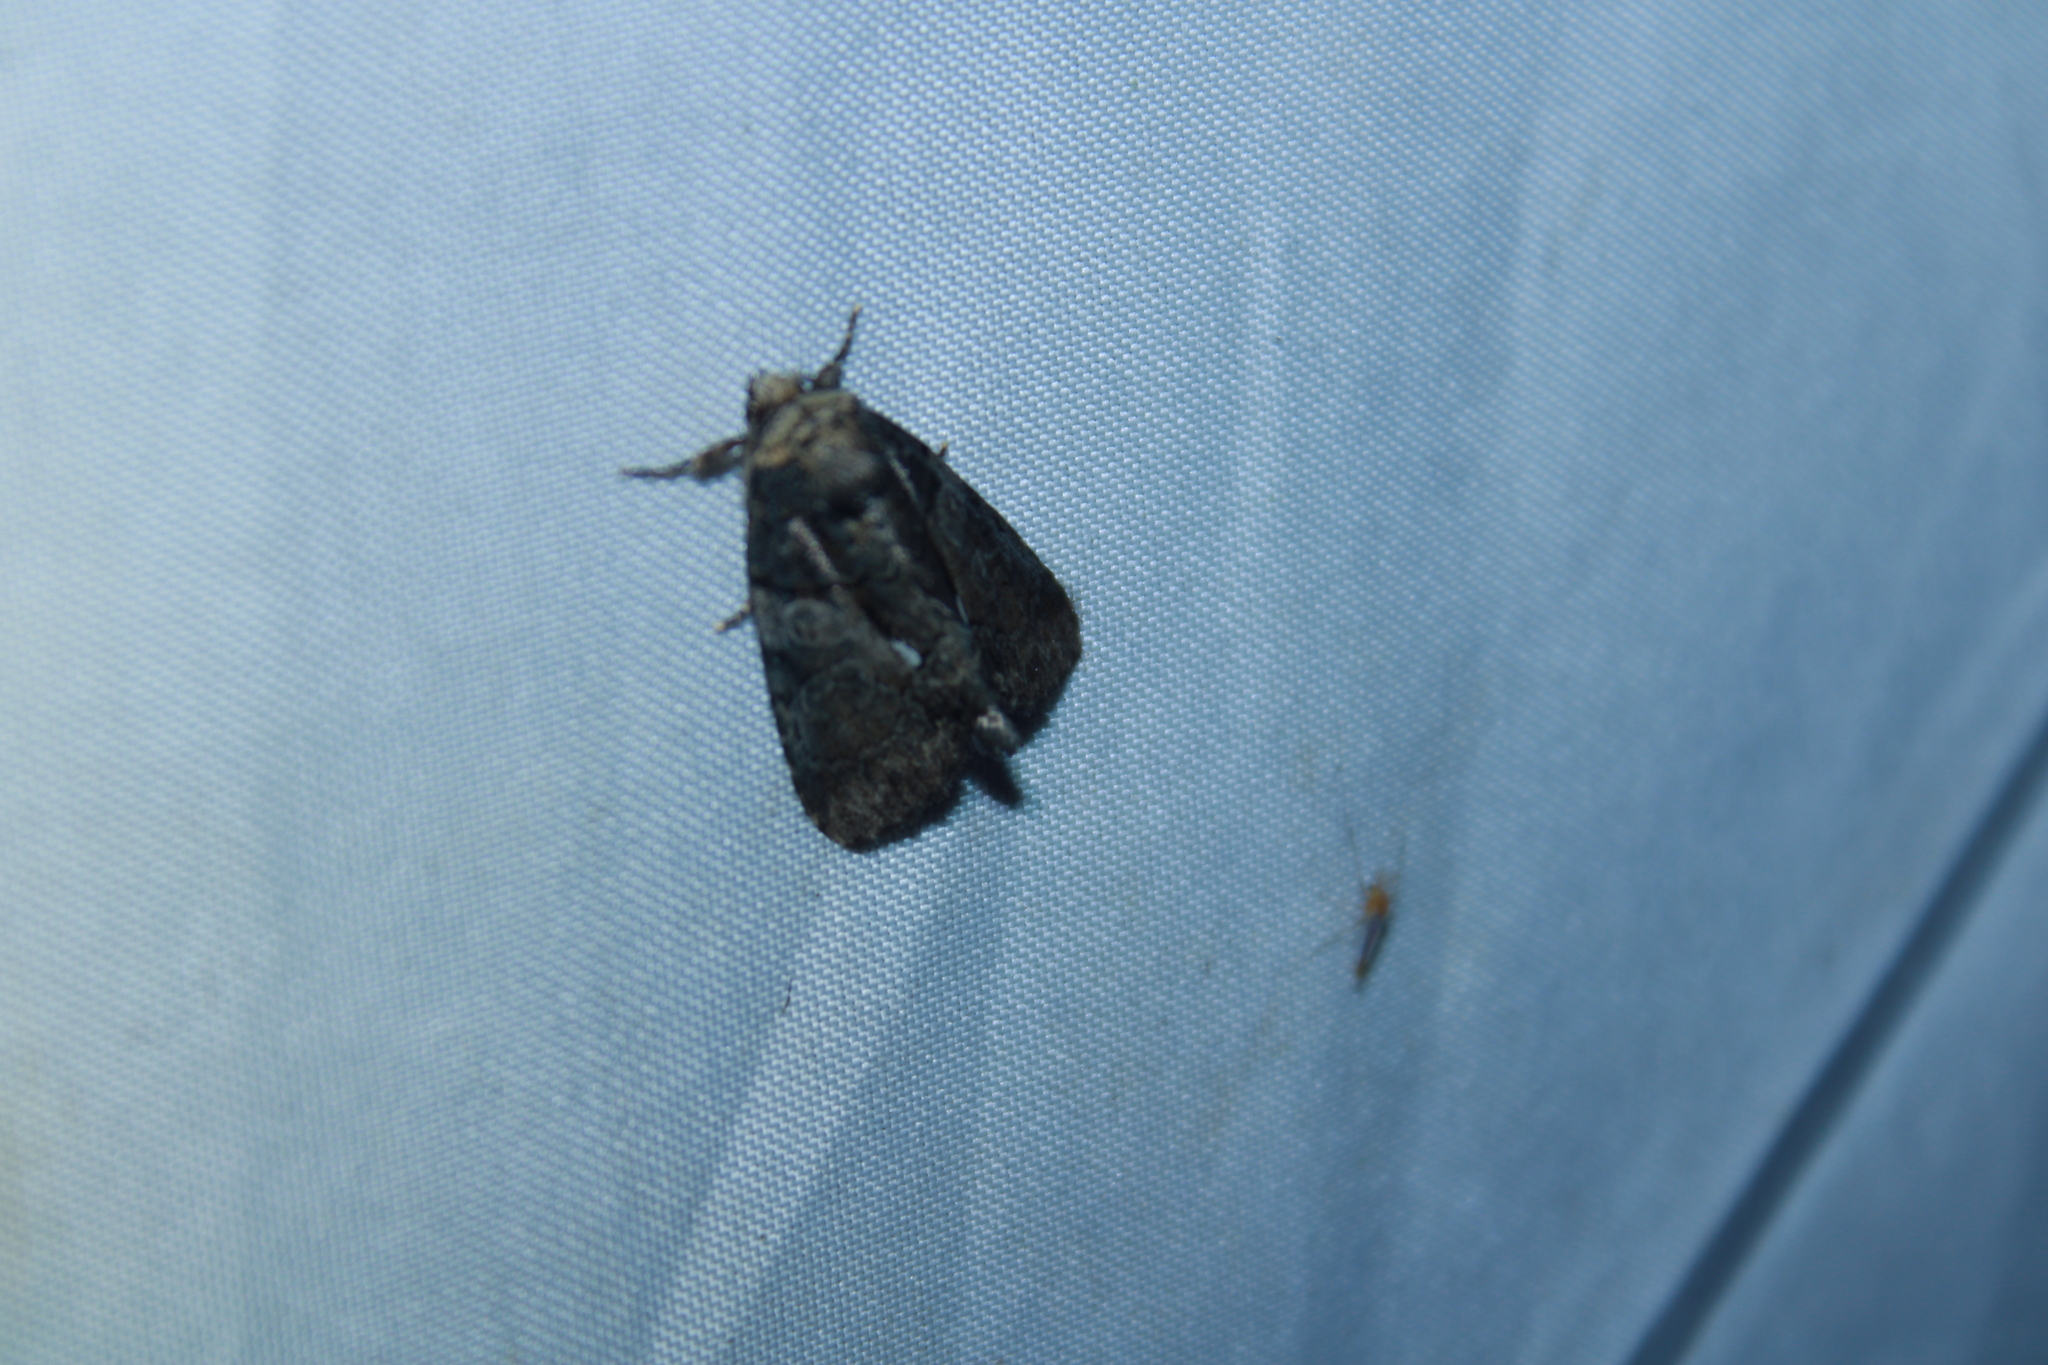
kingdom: Animalia
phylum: Arthropoda
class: Insecta
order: Lepidoptera
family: Noctuidae
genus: Chytonix
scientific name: Chytonix palliatricula
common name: Cloaked marvel
